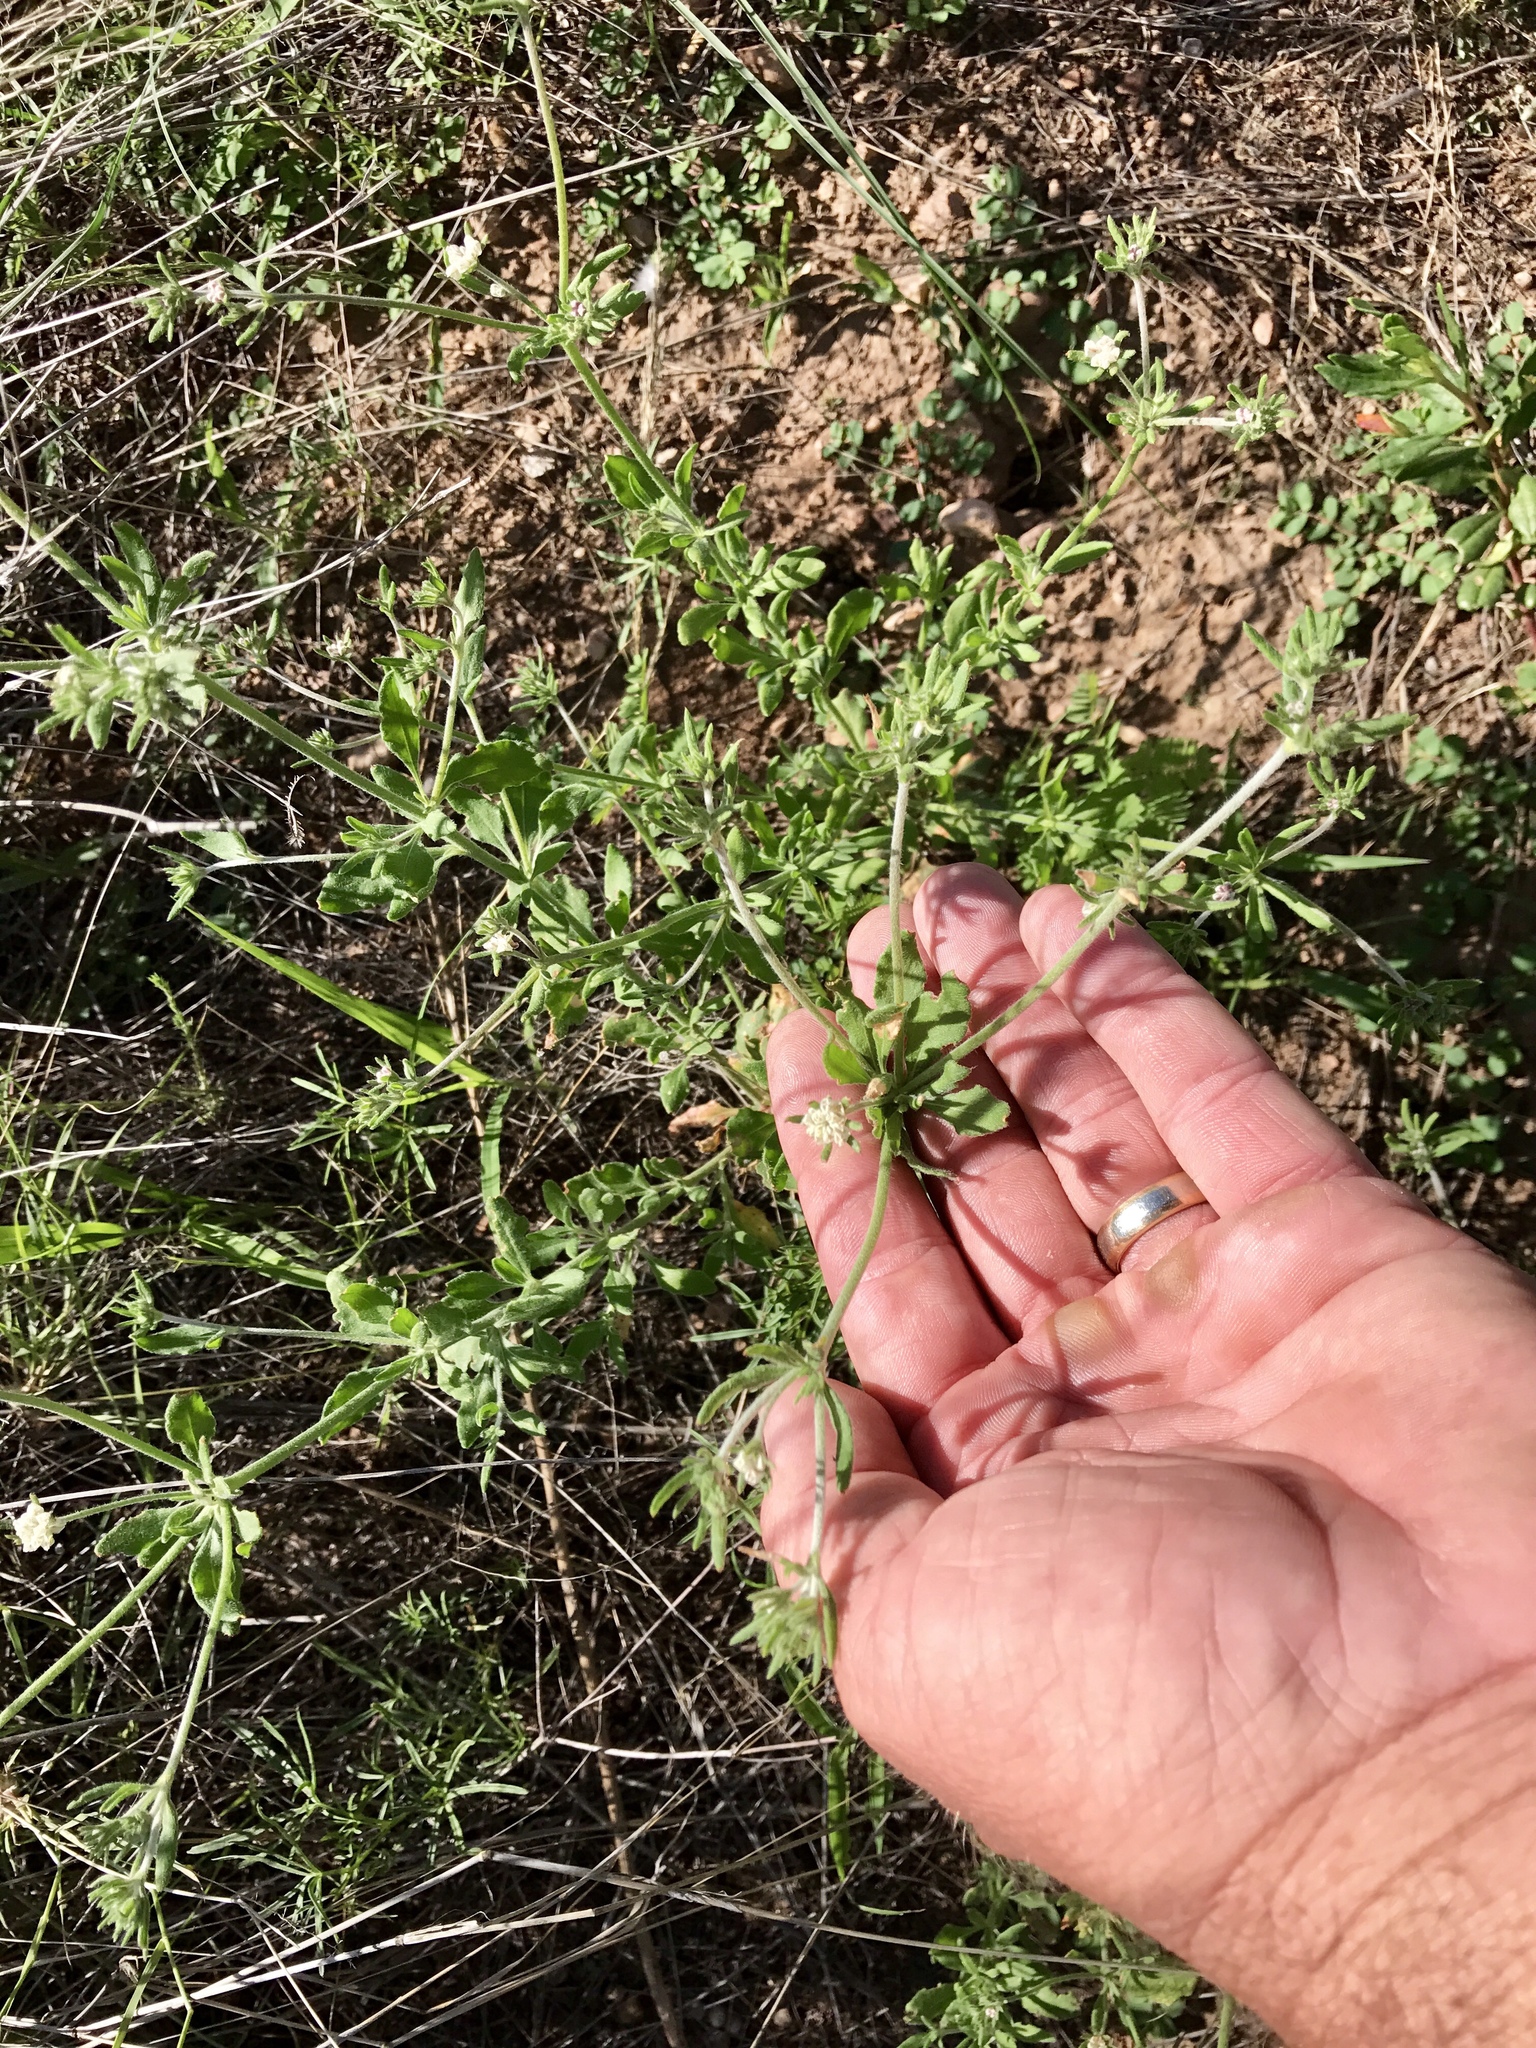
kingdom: Plantae
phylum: Tracheophyta
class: Magnoliopsida
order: Caryophyllales
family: Polygonaceae
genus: Eriogonum
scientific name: Eriogonum abertianum
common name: Abert's wild buckwheat
